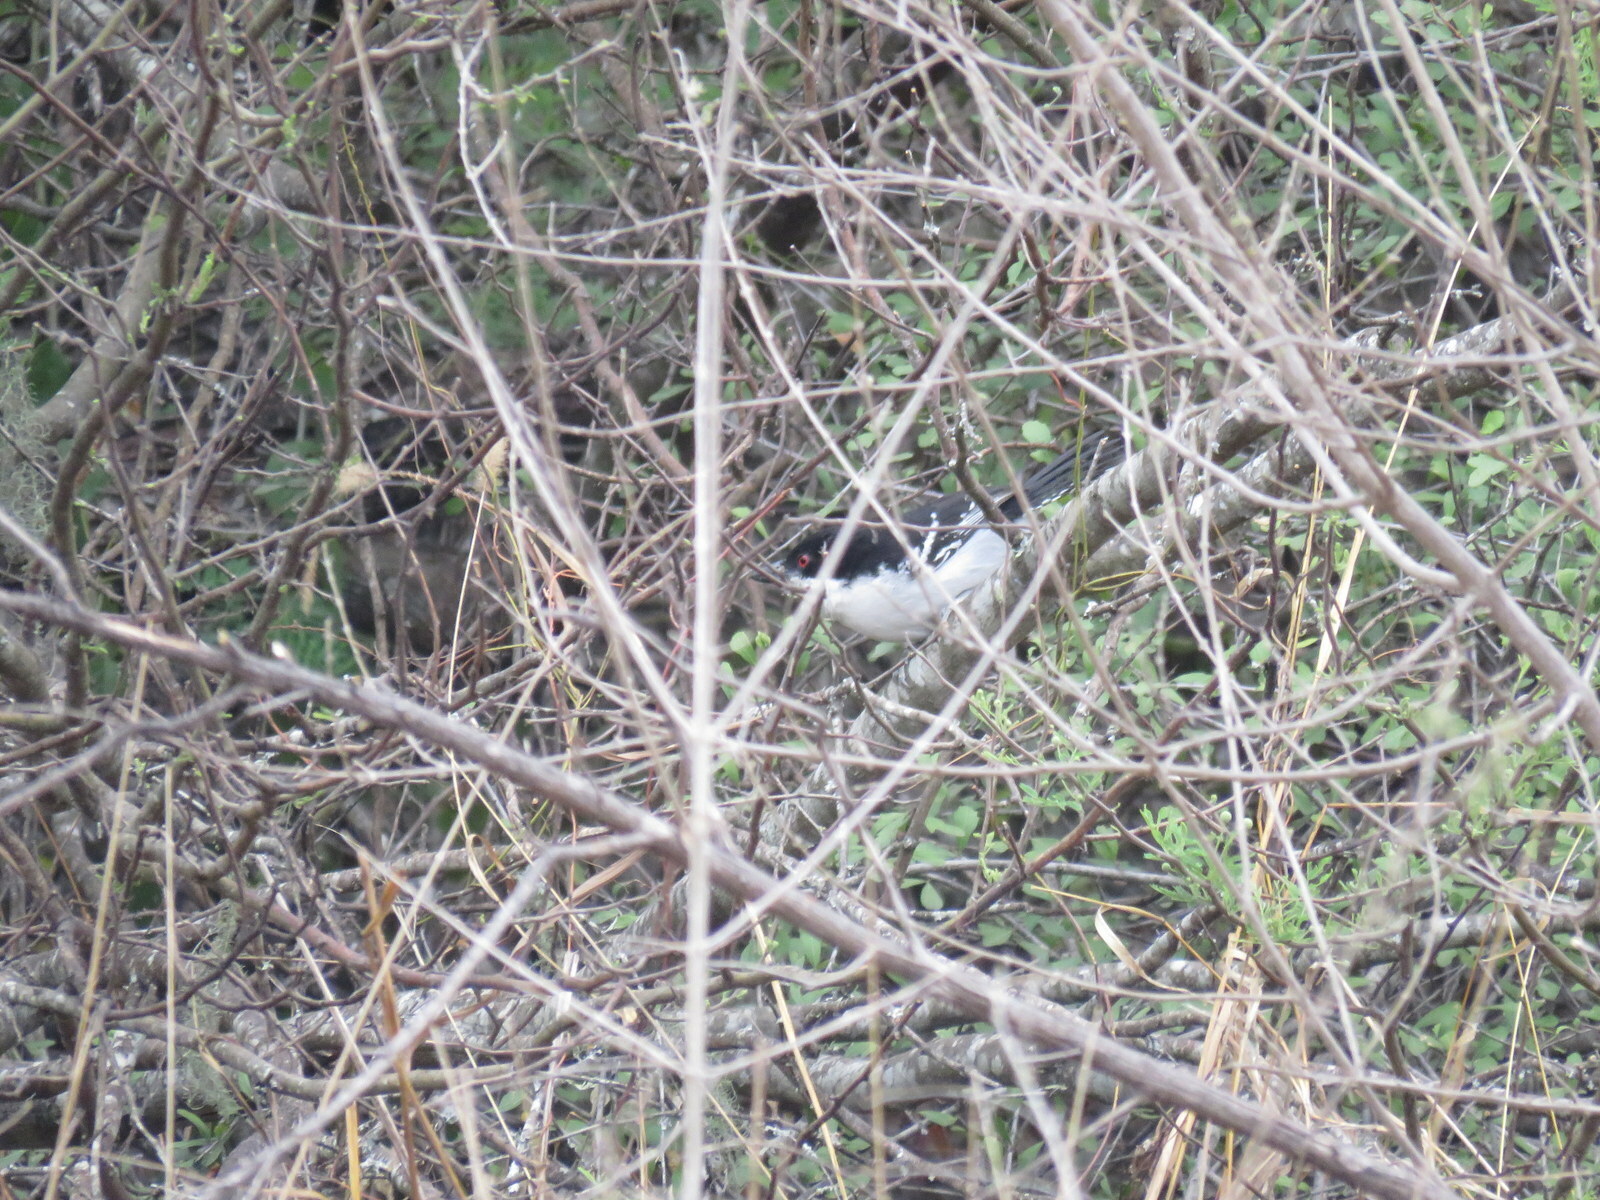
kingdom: Animalia
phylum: Chordata
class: Aves
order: Passeriformes
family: Thamnophilidae
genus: Taraba
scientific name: Taraba major
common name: Great antshrike
